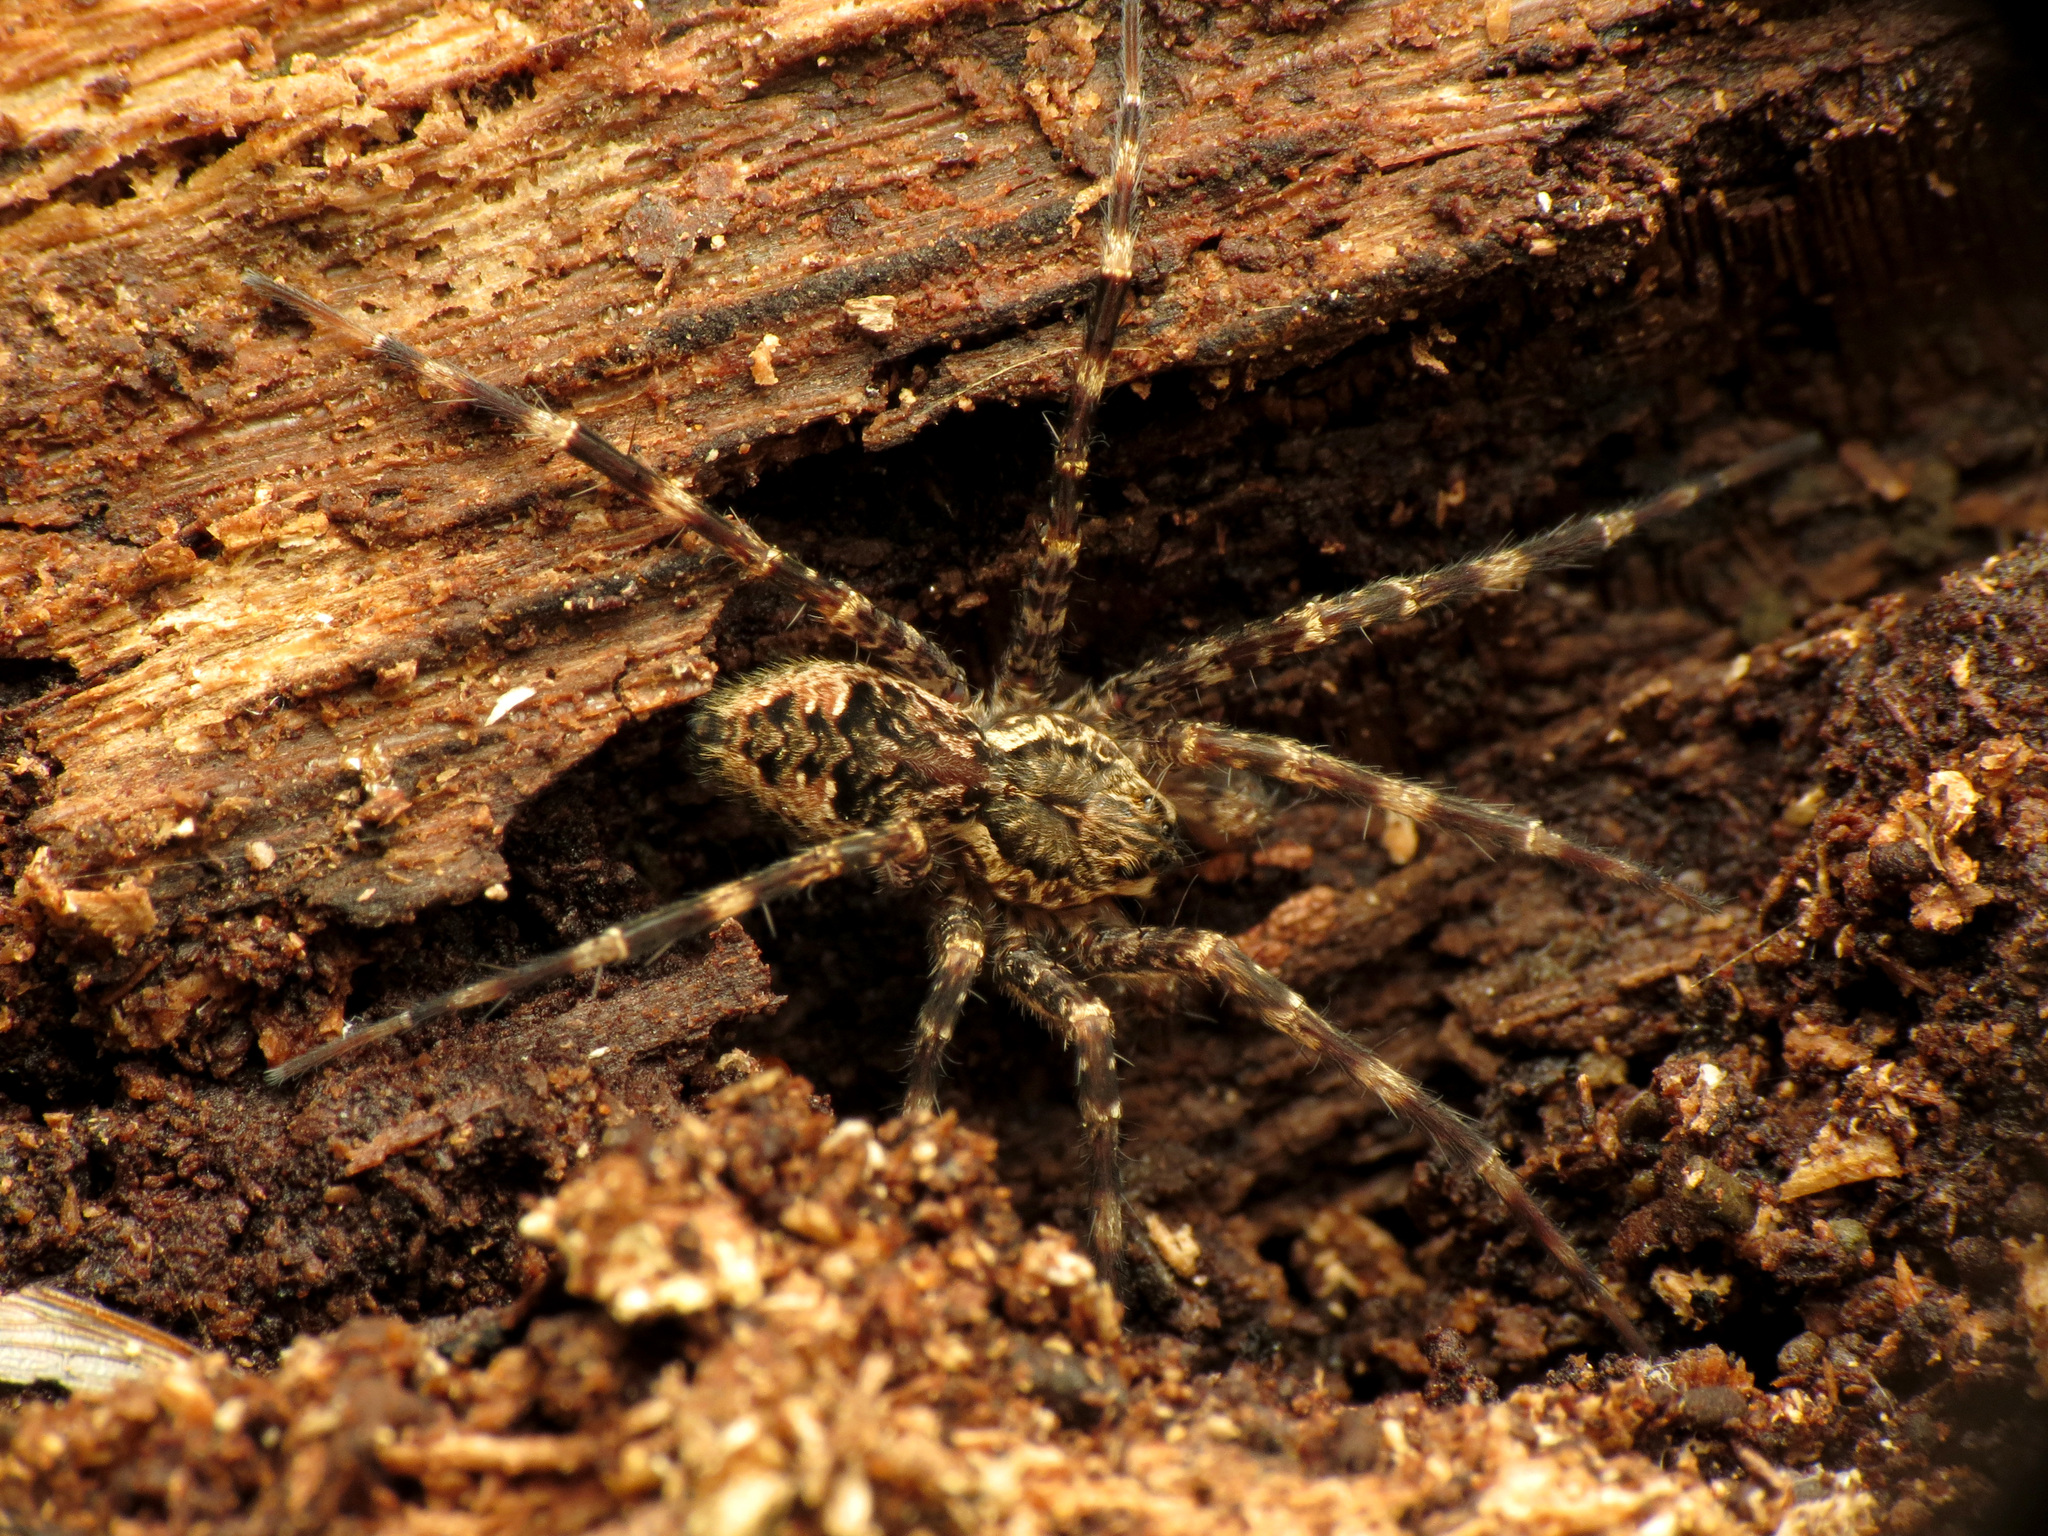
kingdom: Animalia
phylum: Arthropoda
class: Arachnida
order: Araneae
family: Pisauridae
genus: Dolomedes
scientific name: Dolomedes tenebrosus
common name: Dark fishing spider
